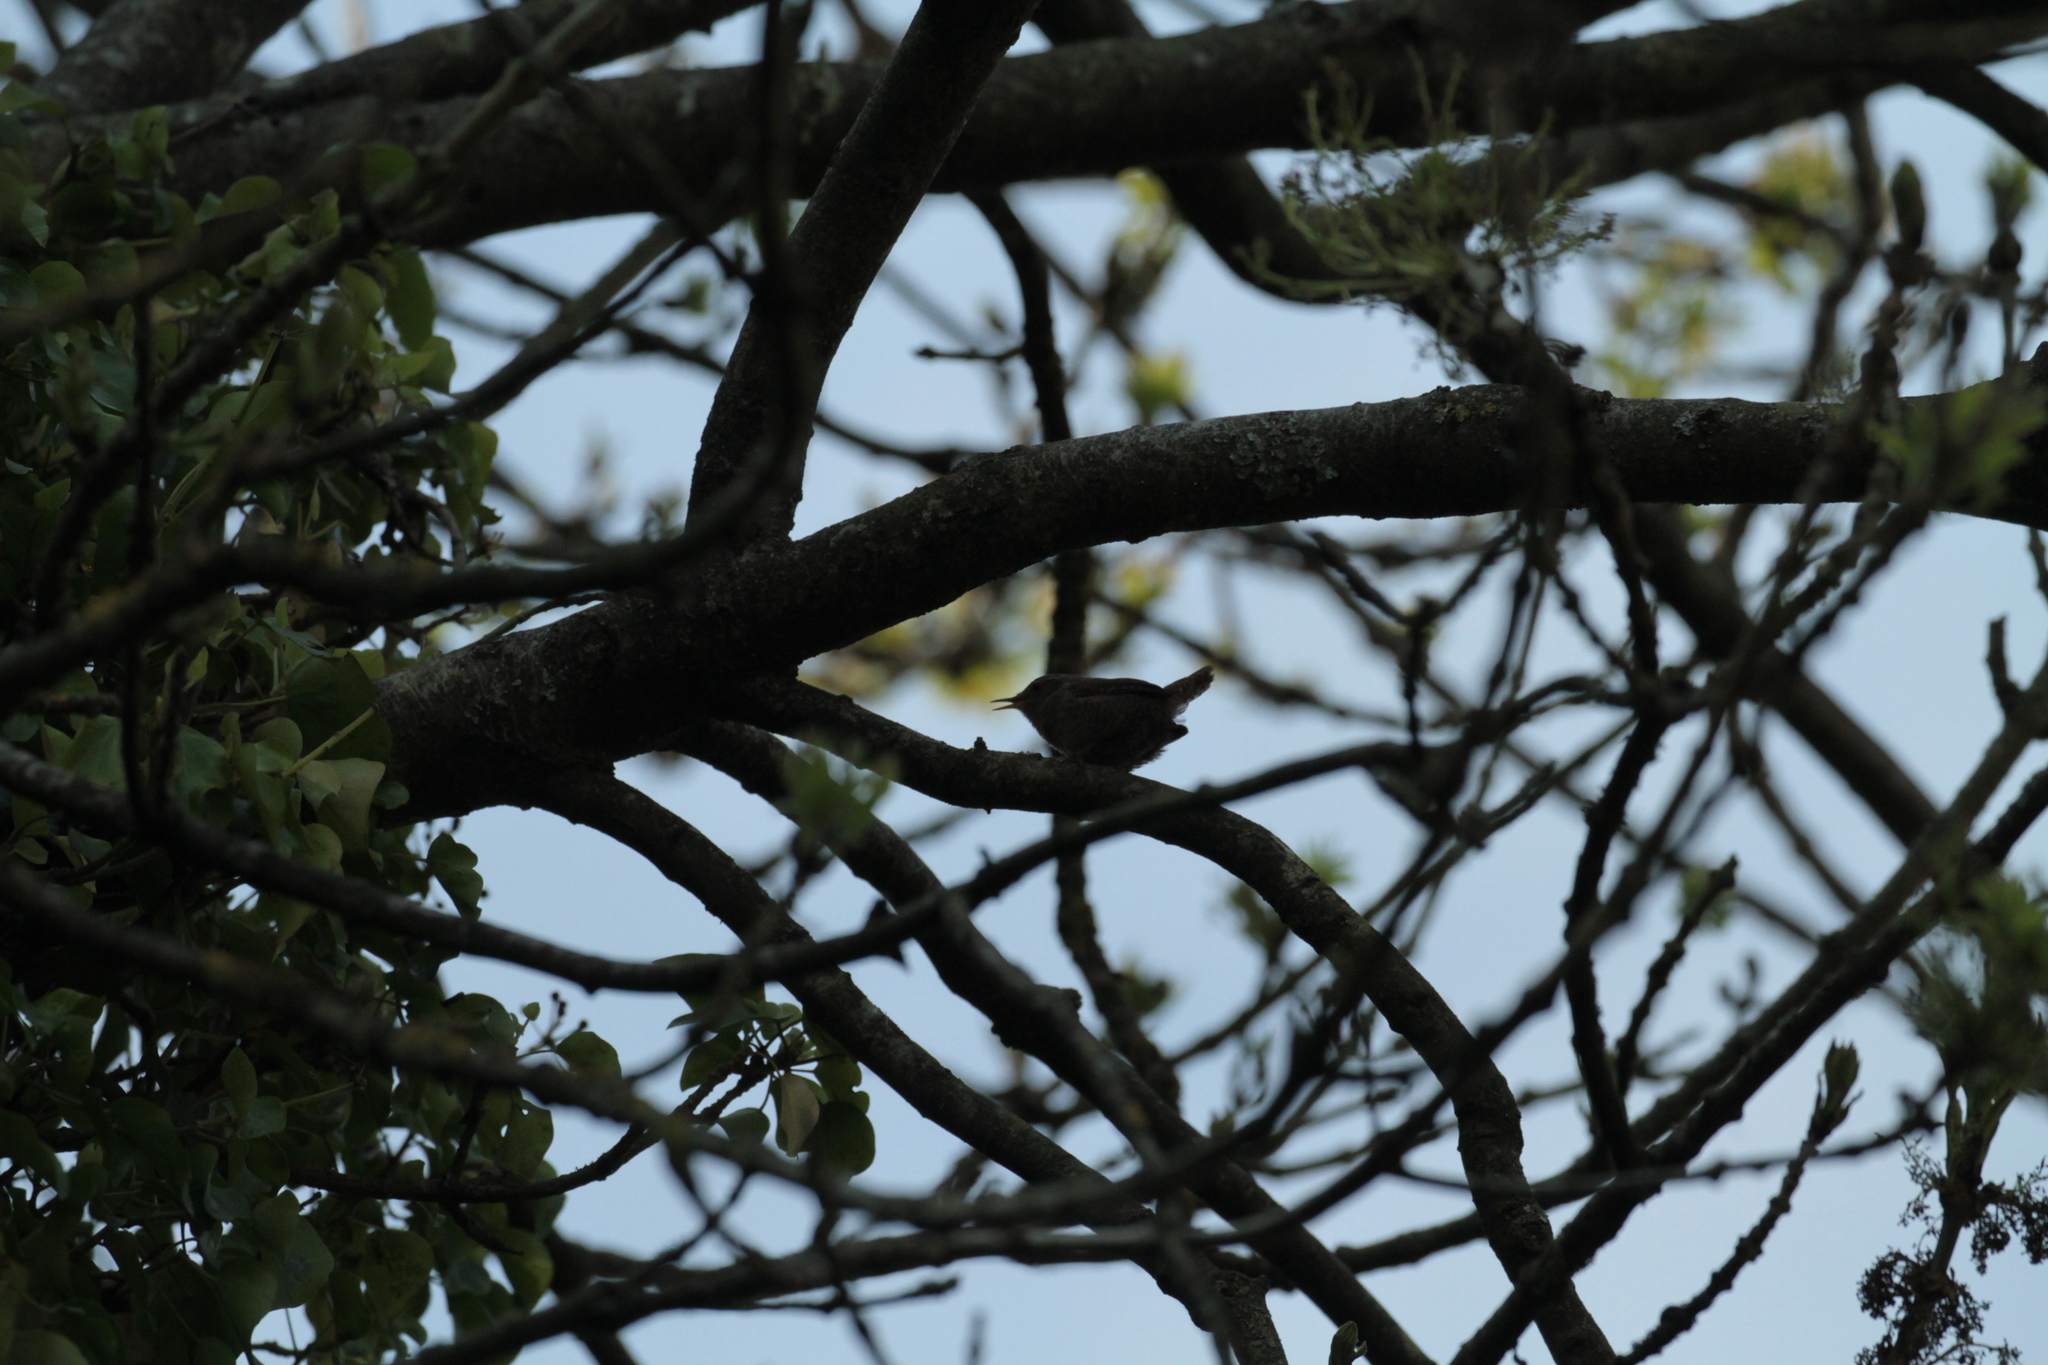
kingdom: Animalia
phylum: Chordata
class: Aves
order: Passeriformes
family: Troglodytidae
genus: Troglodytes
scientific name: Troglodytes troglodytes
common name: Eurasian wren
